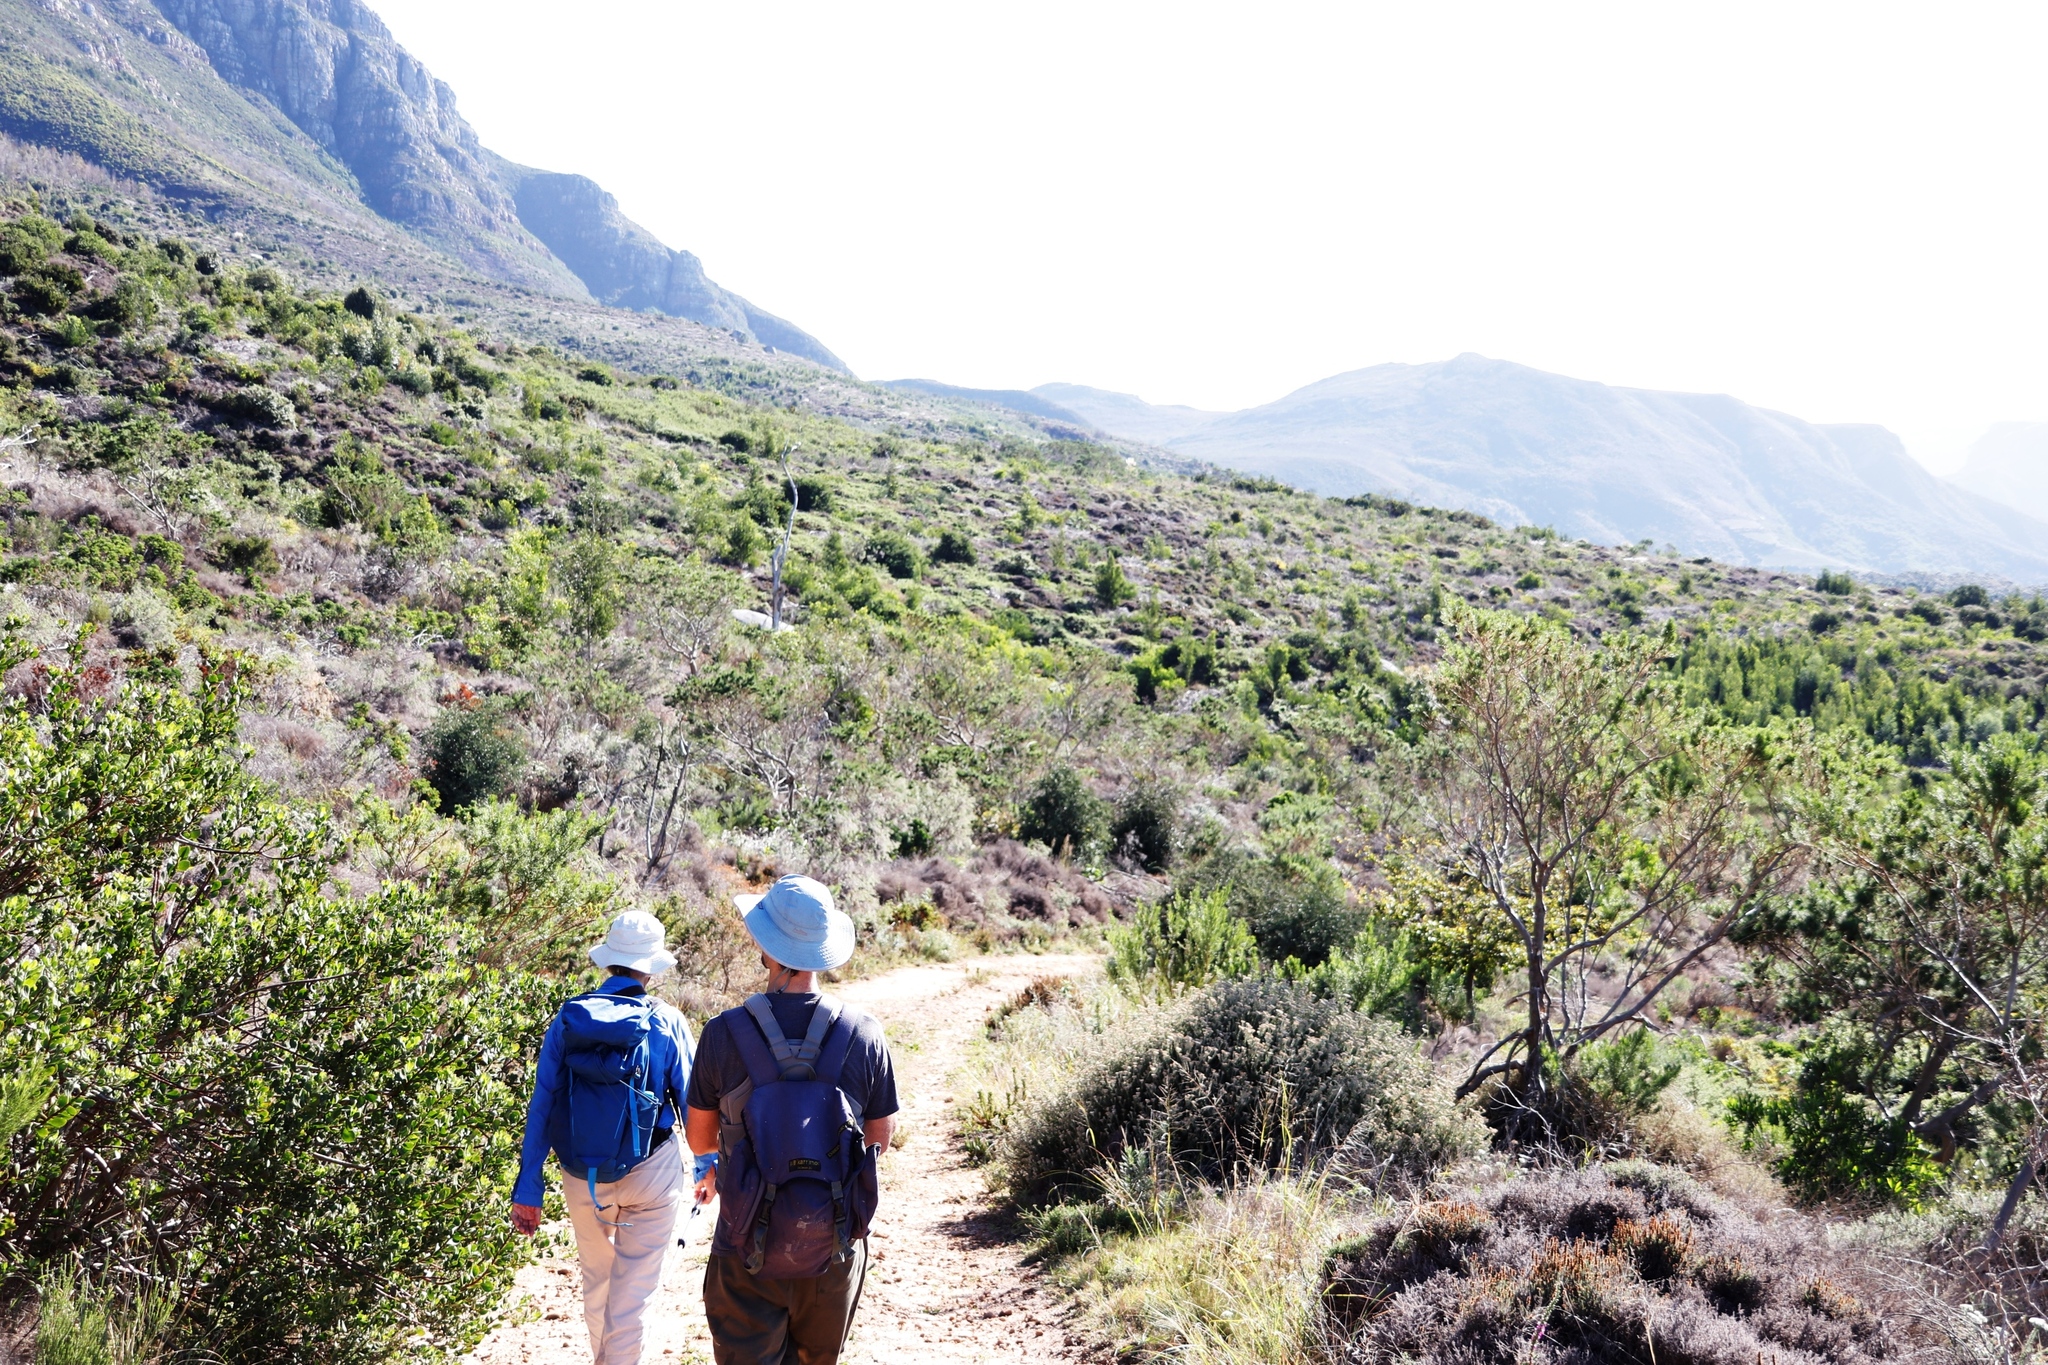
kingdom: Plantae
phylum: Tracheophyta
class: Magnoliopsida
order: Fabales
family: Fabaceae
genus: Psoralea
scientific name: Psoralea pinnata
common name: African scurfpea
